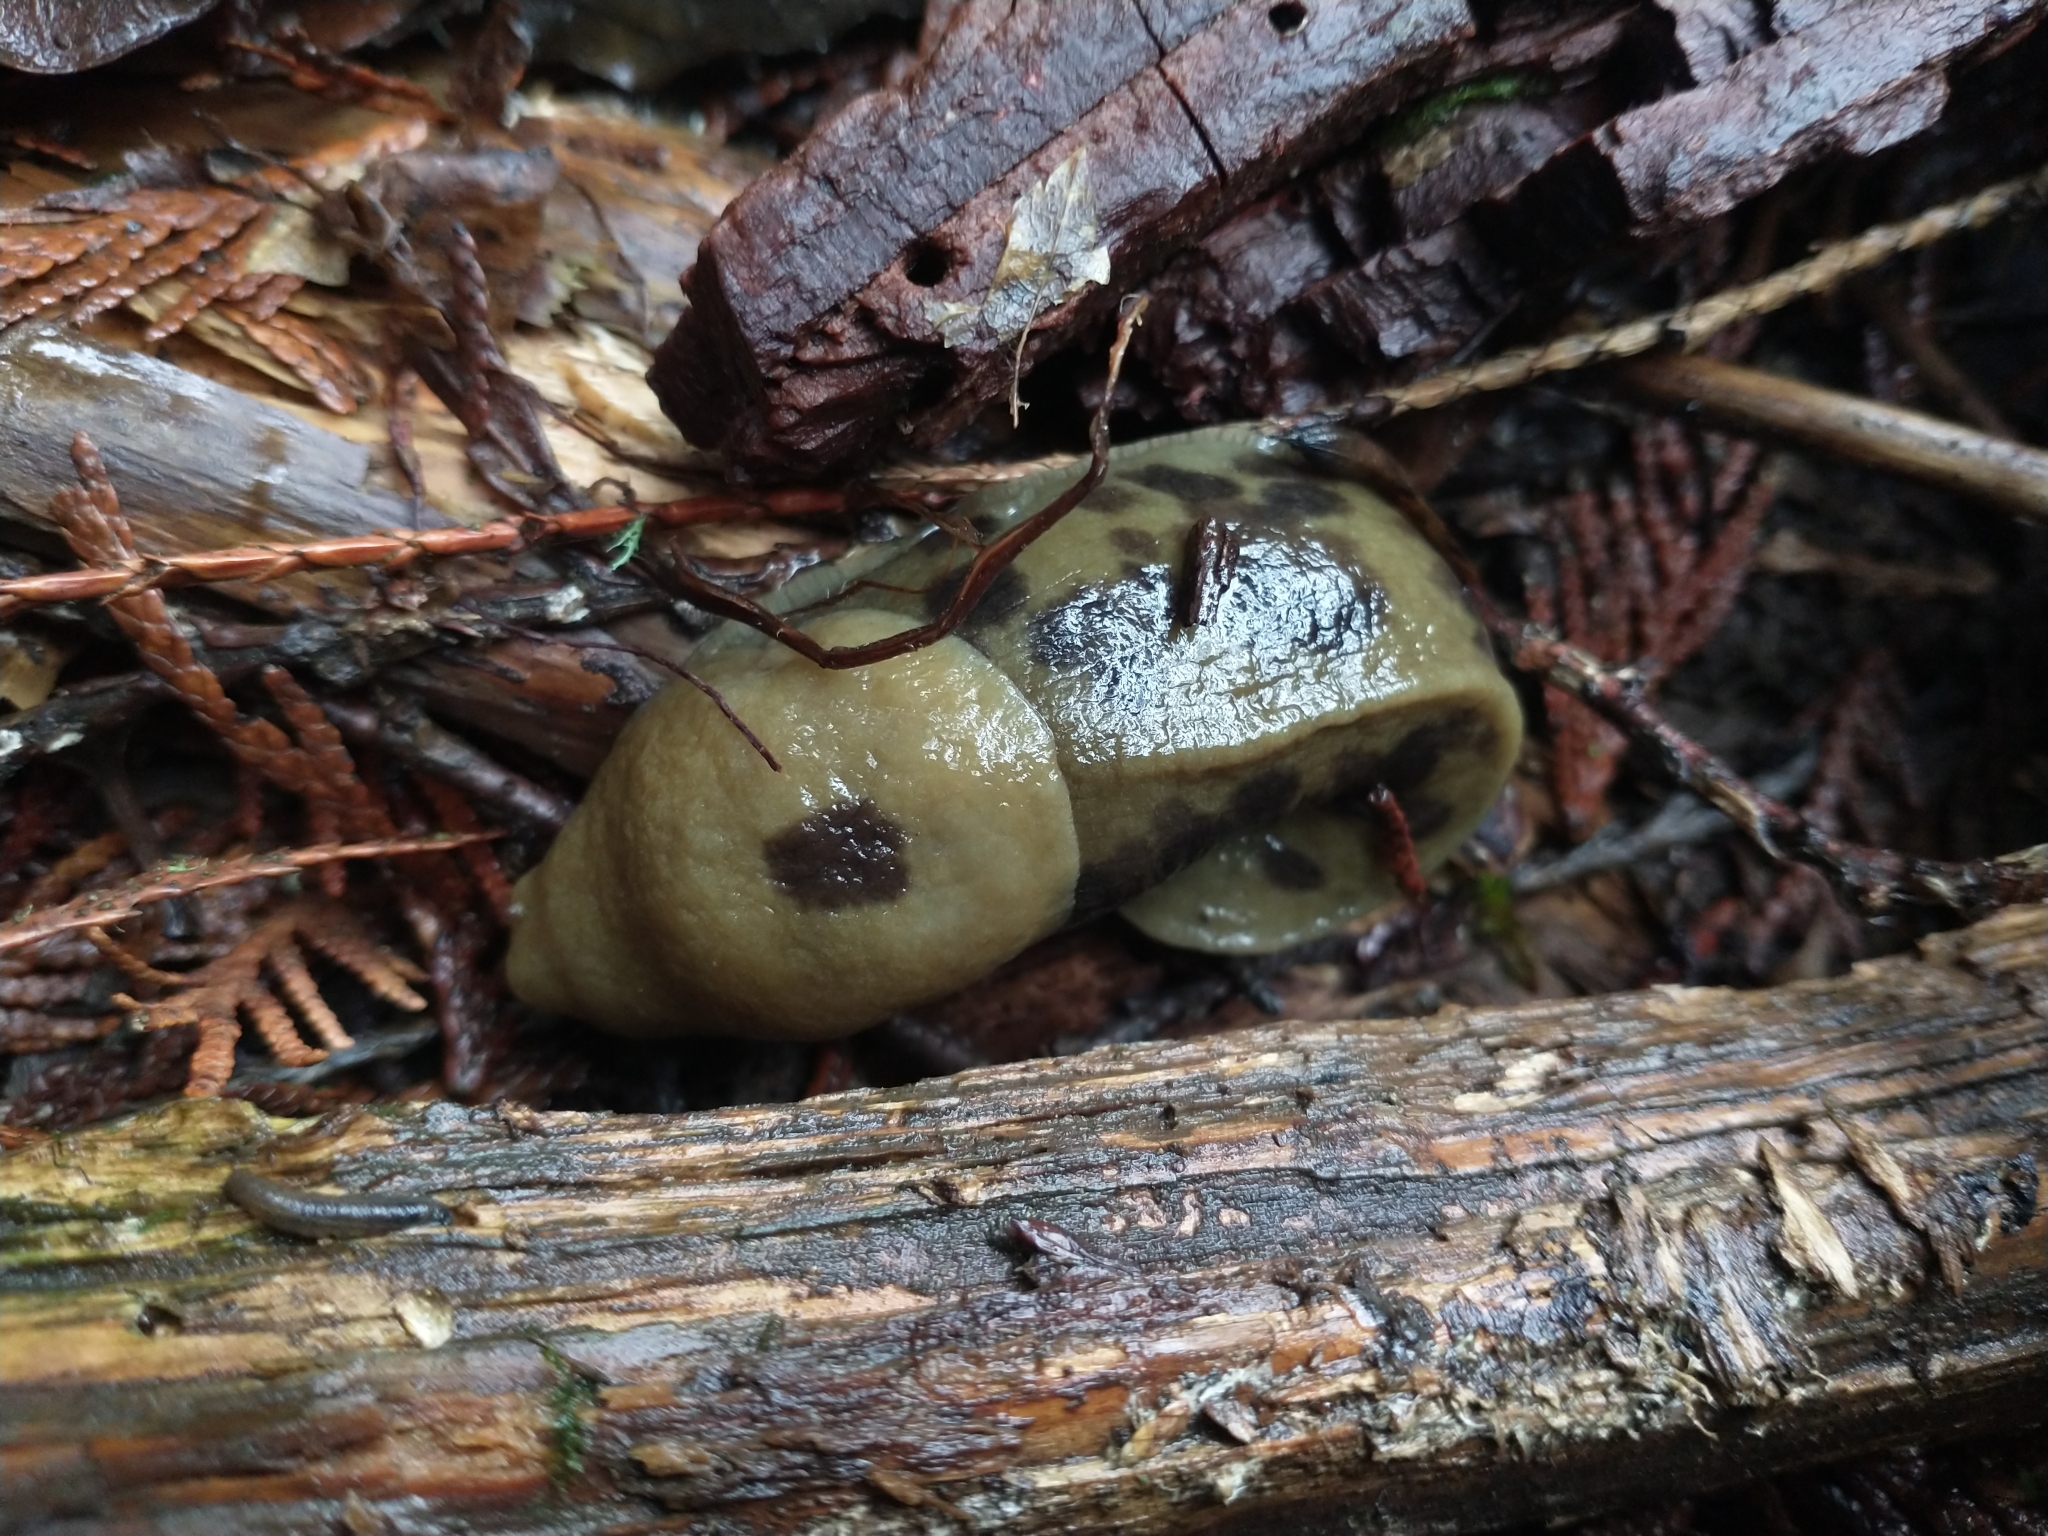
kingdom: Animalia
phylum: Mollusca
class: Gastropoda
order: Stylommatophora
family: Ariolimacidae
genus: Ariolimax
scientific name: Ariolimax columbianus
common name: Pacific banana slug
